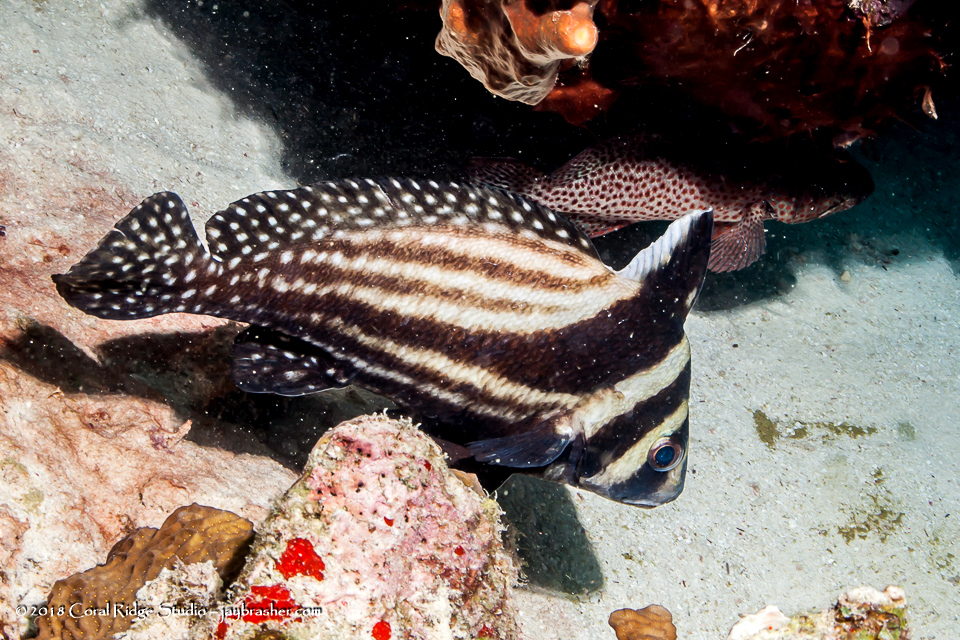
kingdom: Animalia
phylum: Chordata
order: Perciformes
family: Sciaenidae
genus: Equetus
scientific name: Equetus punctatus
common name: Spotted drum
